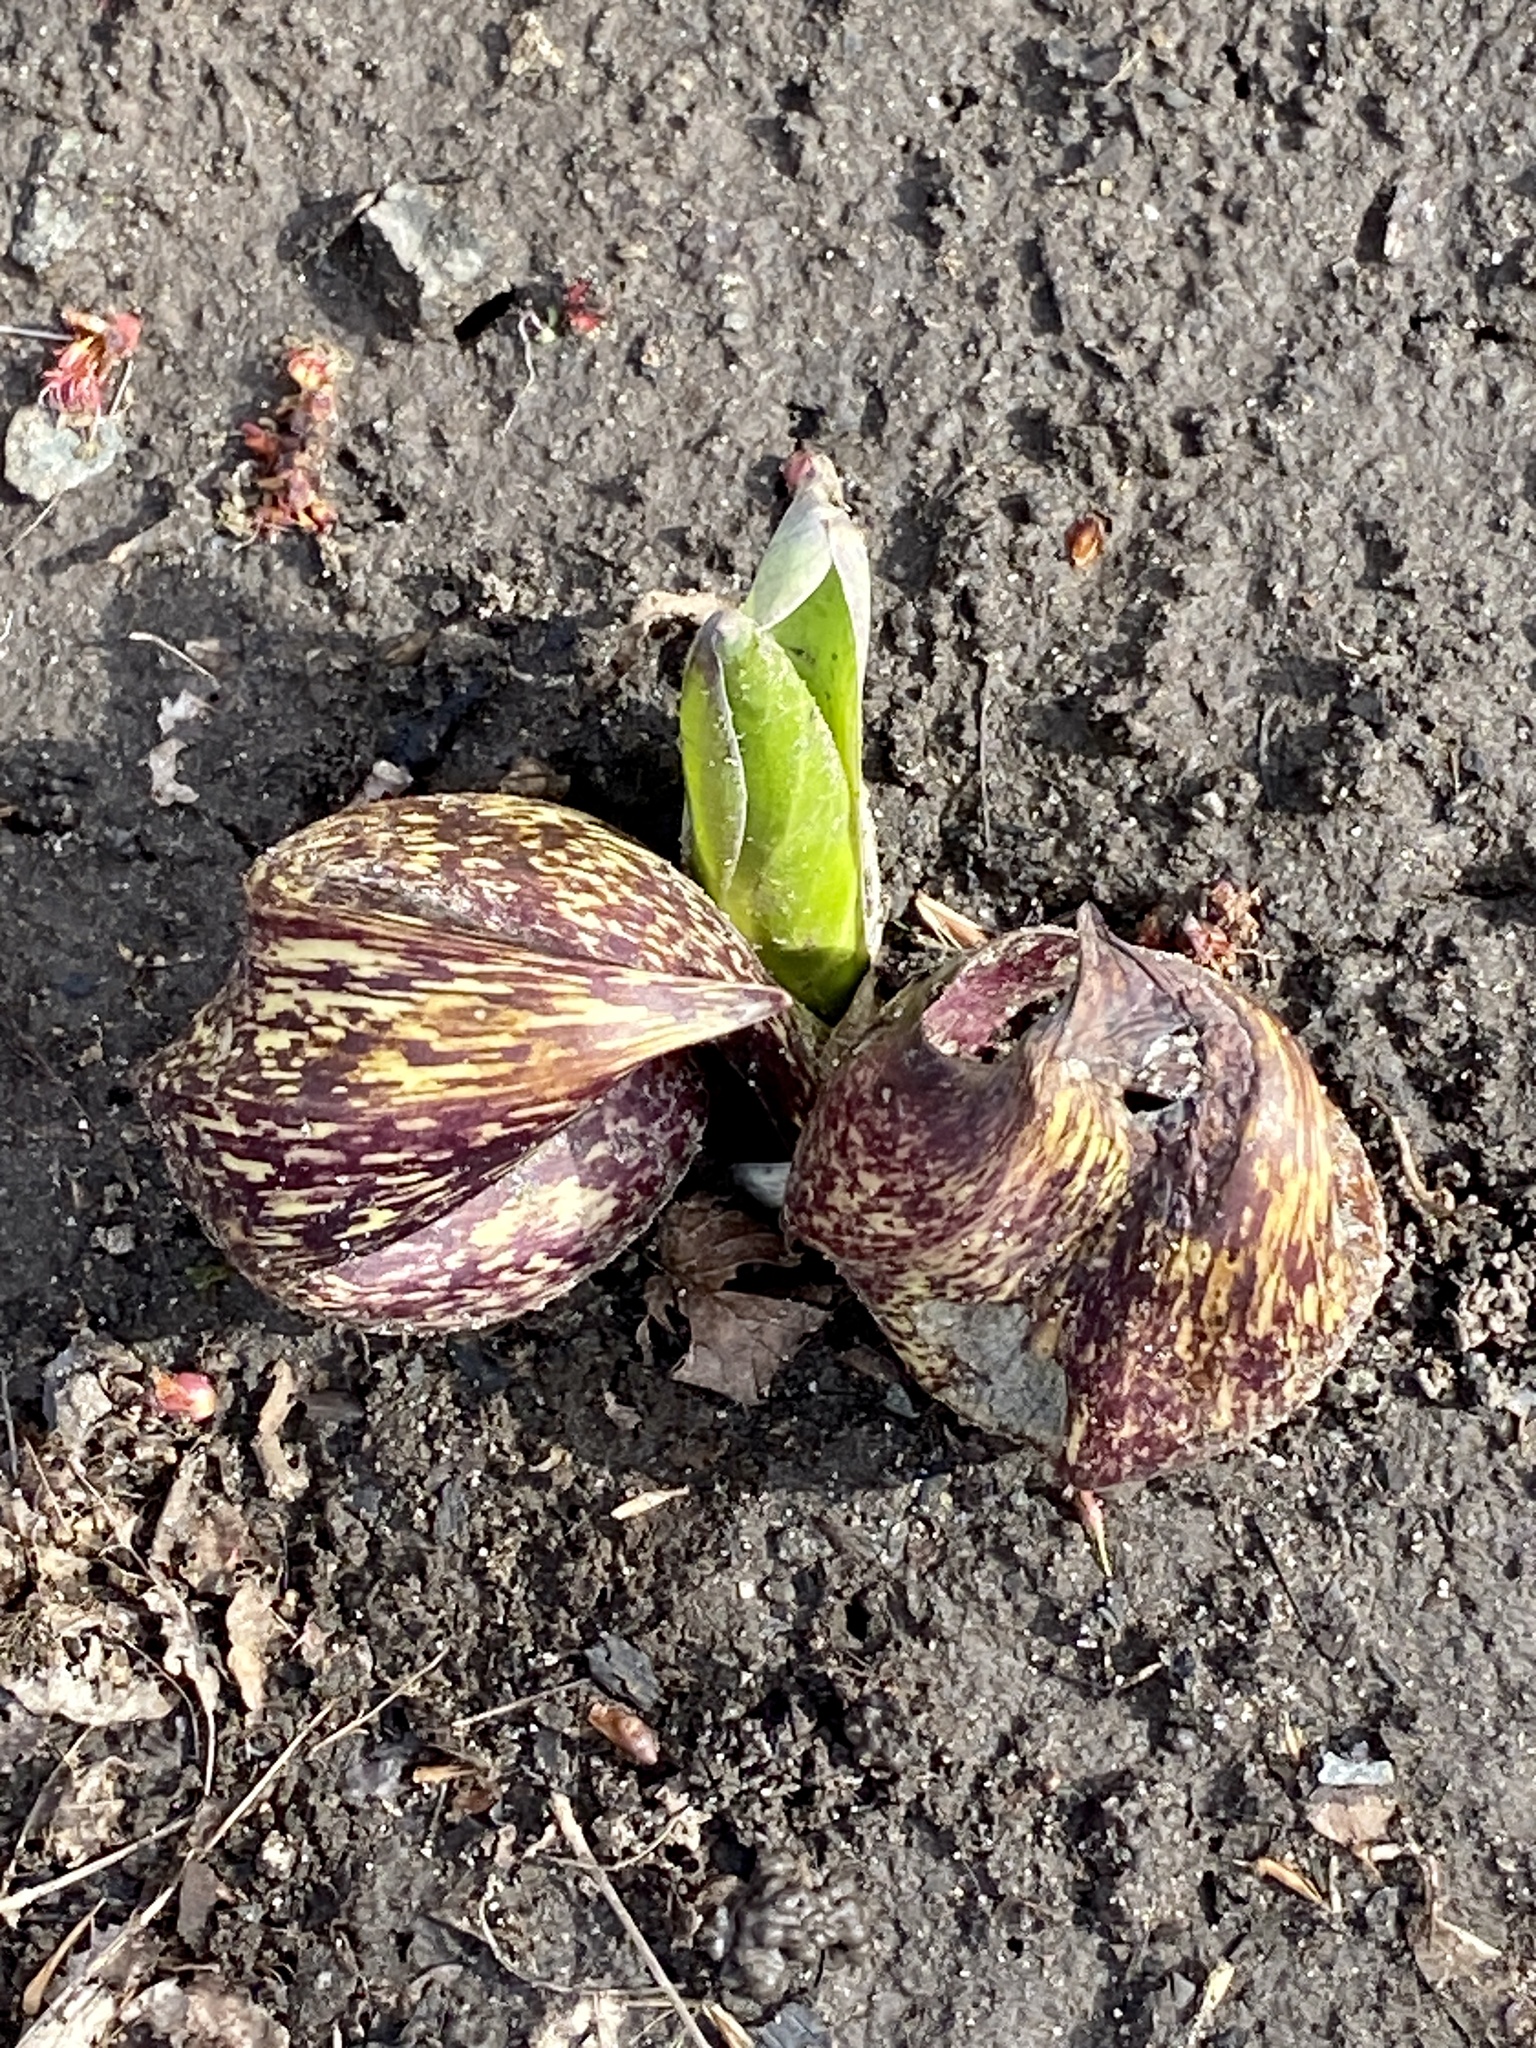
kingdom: Plantae
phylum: Tracheophyta
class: Liliopsida
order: Alismatales
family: Araceae
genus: Symplocarpus
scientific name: Symplocarpus foetidus
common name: Eastern skunk cabbage
